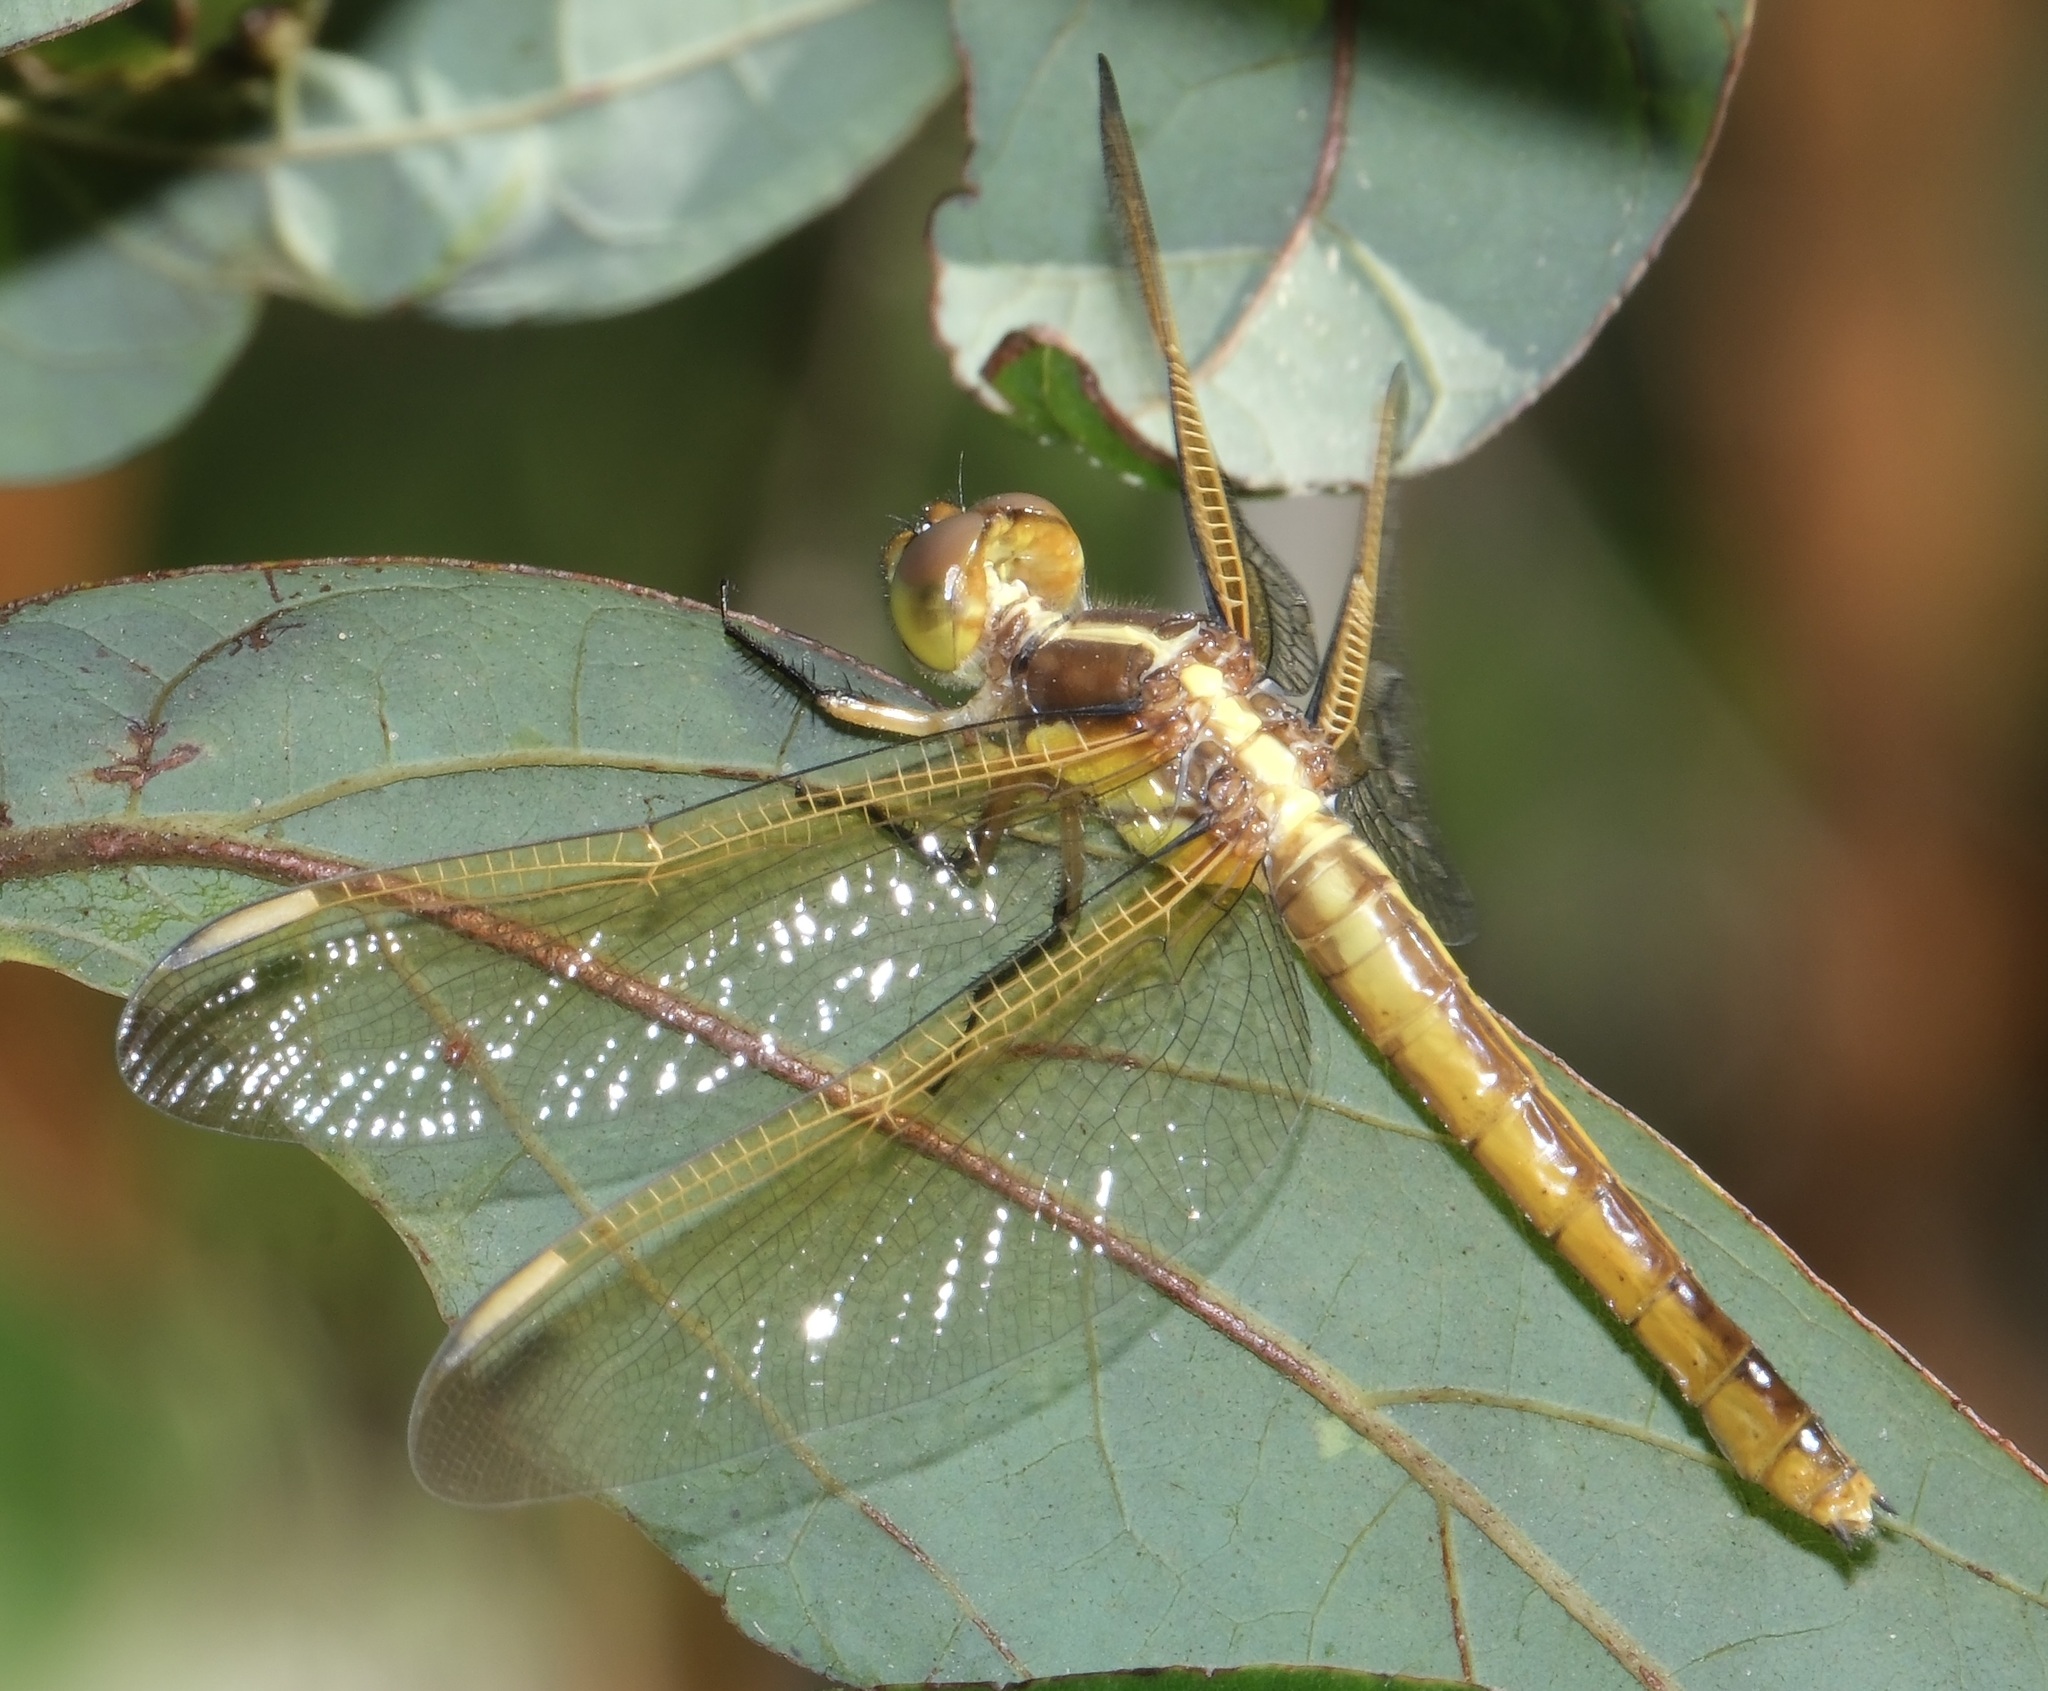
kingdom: Animalia
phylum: Arthropoda
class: Insecta
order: Odonata
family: Libellulidae
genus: Libellula
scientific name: Libellula flavida
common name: Yellow-sided skimmer
